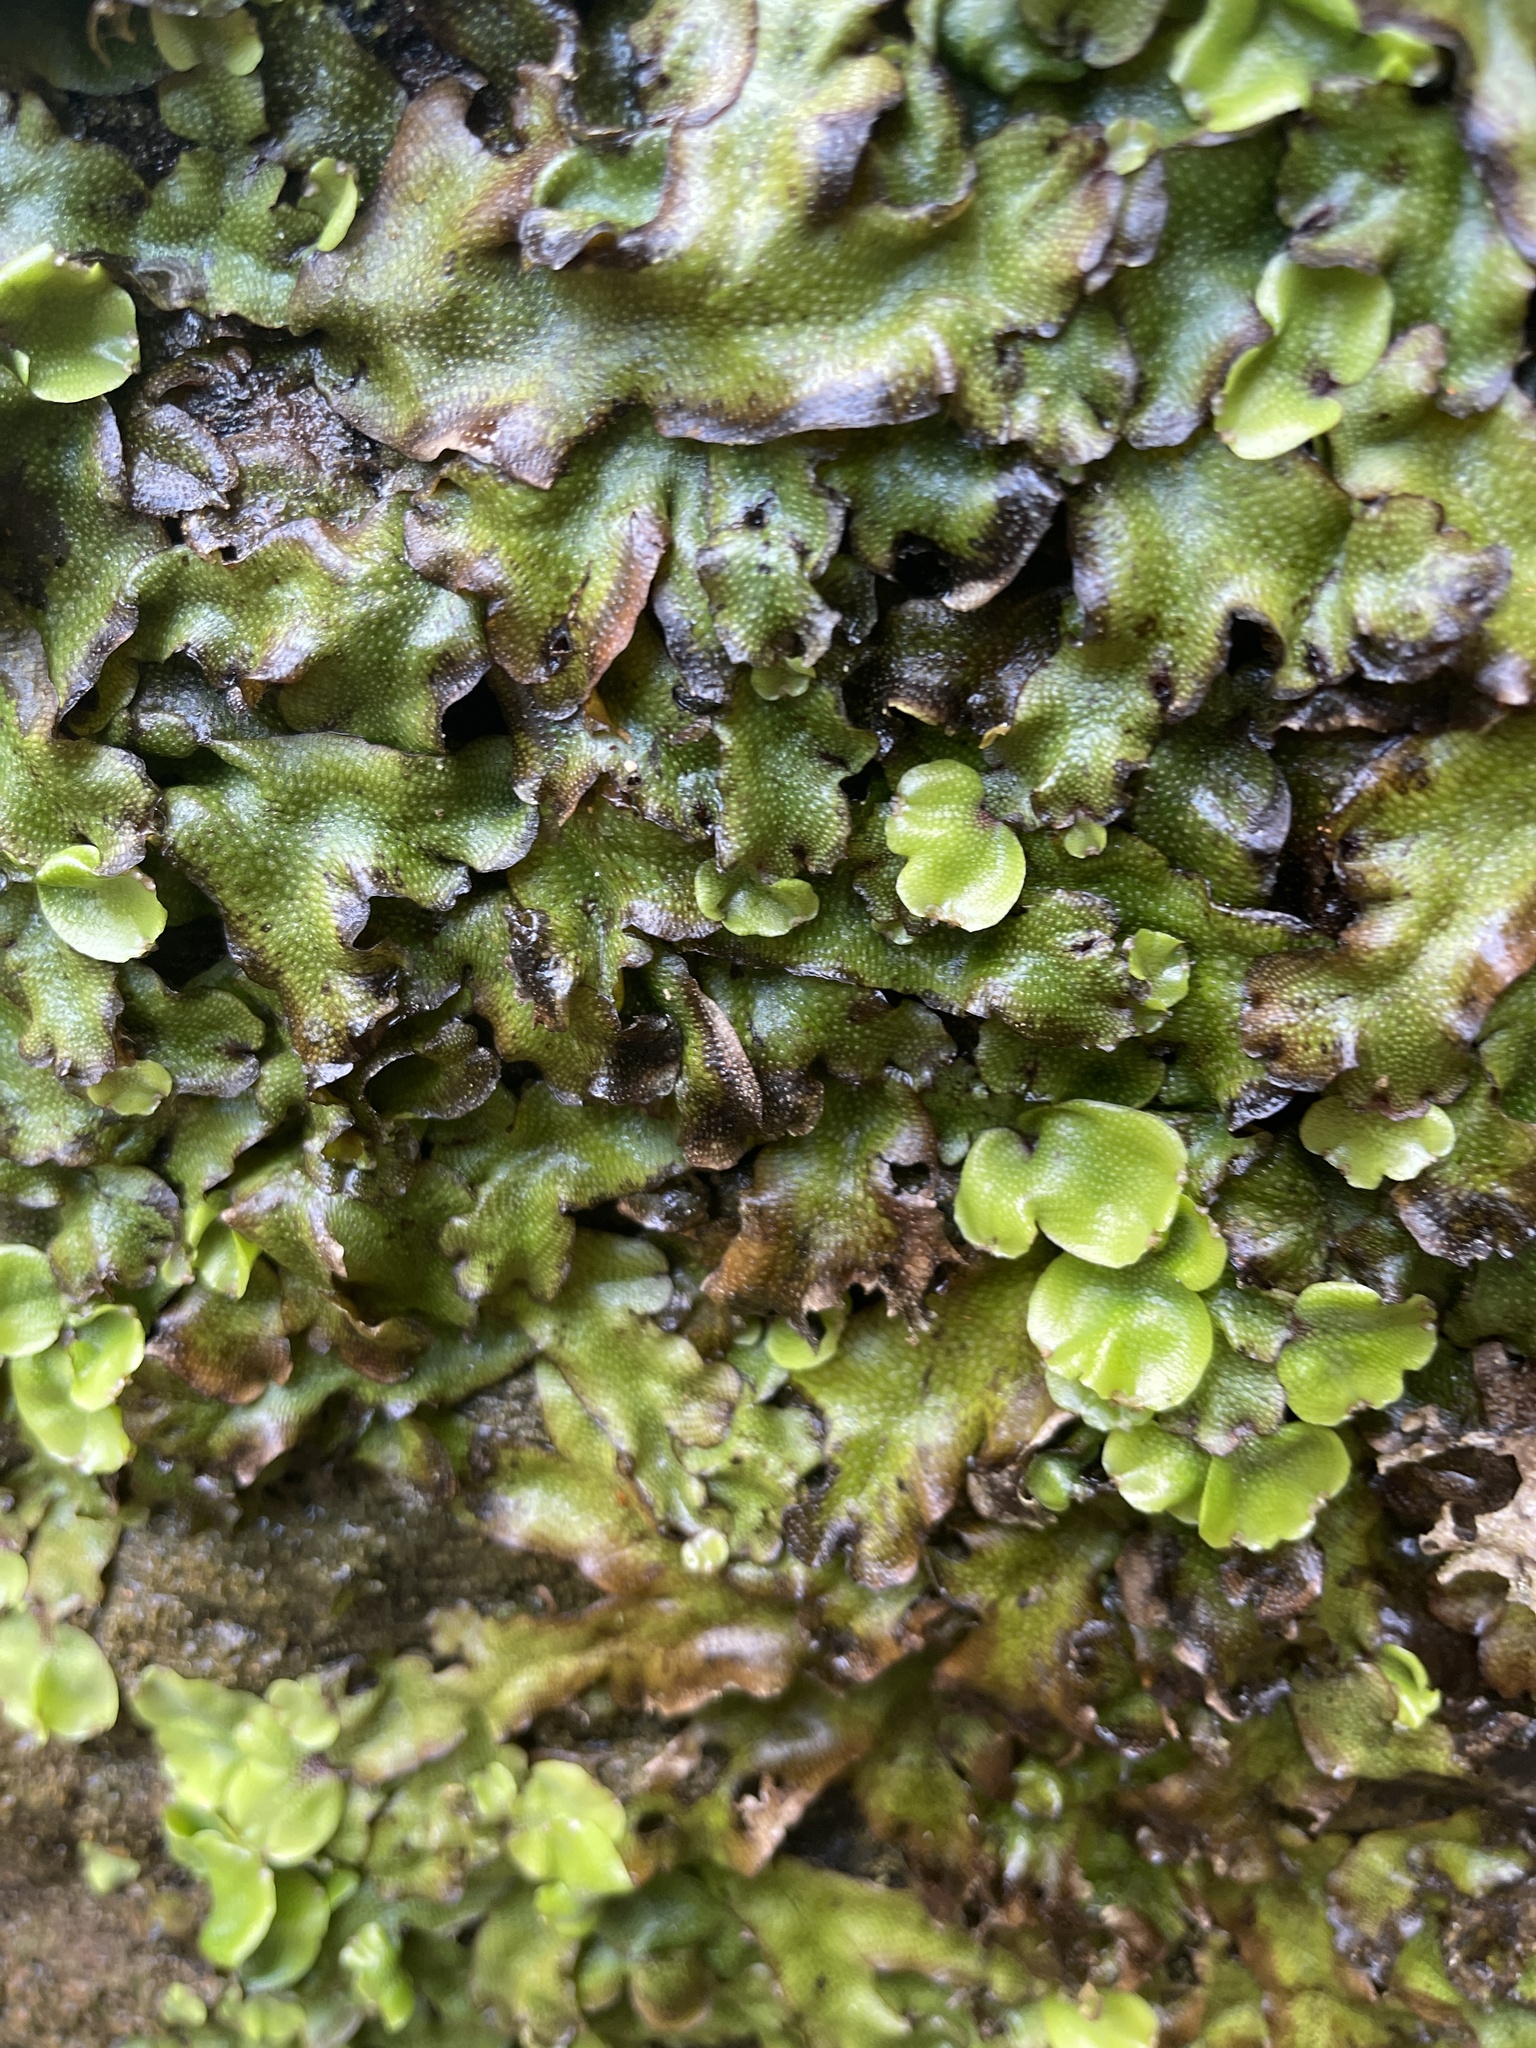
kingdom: Plantae
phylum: Marchantiophyta
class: Marchantiopsida
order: Marchantiales
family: Conocephalaceae
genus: Conocephalum
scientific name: Conocephalum conicum
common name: Great scented liverwort
